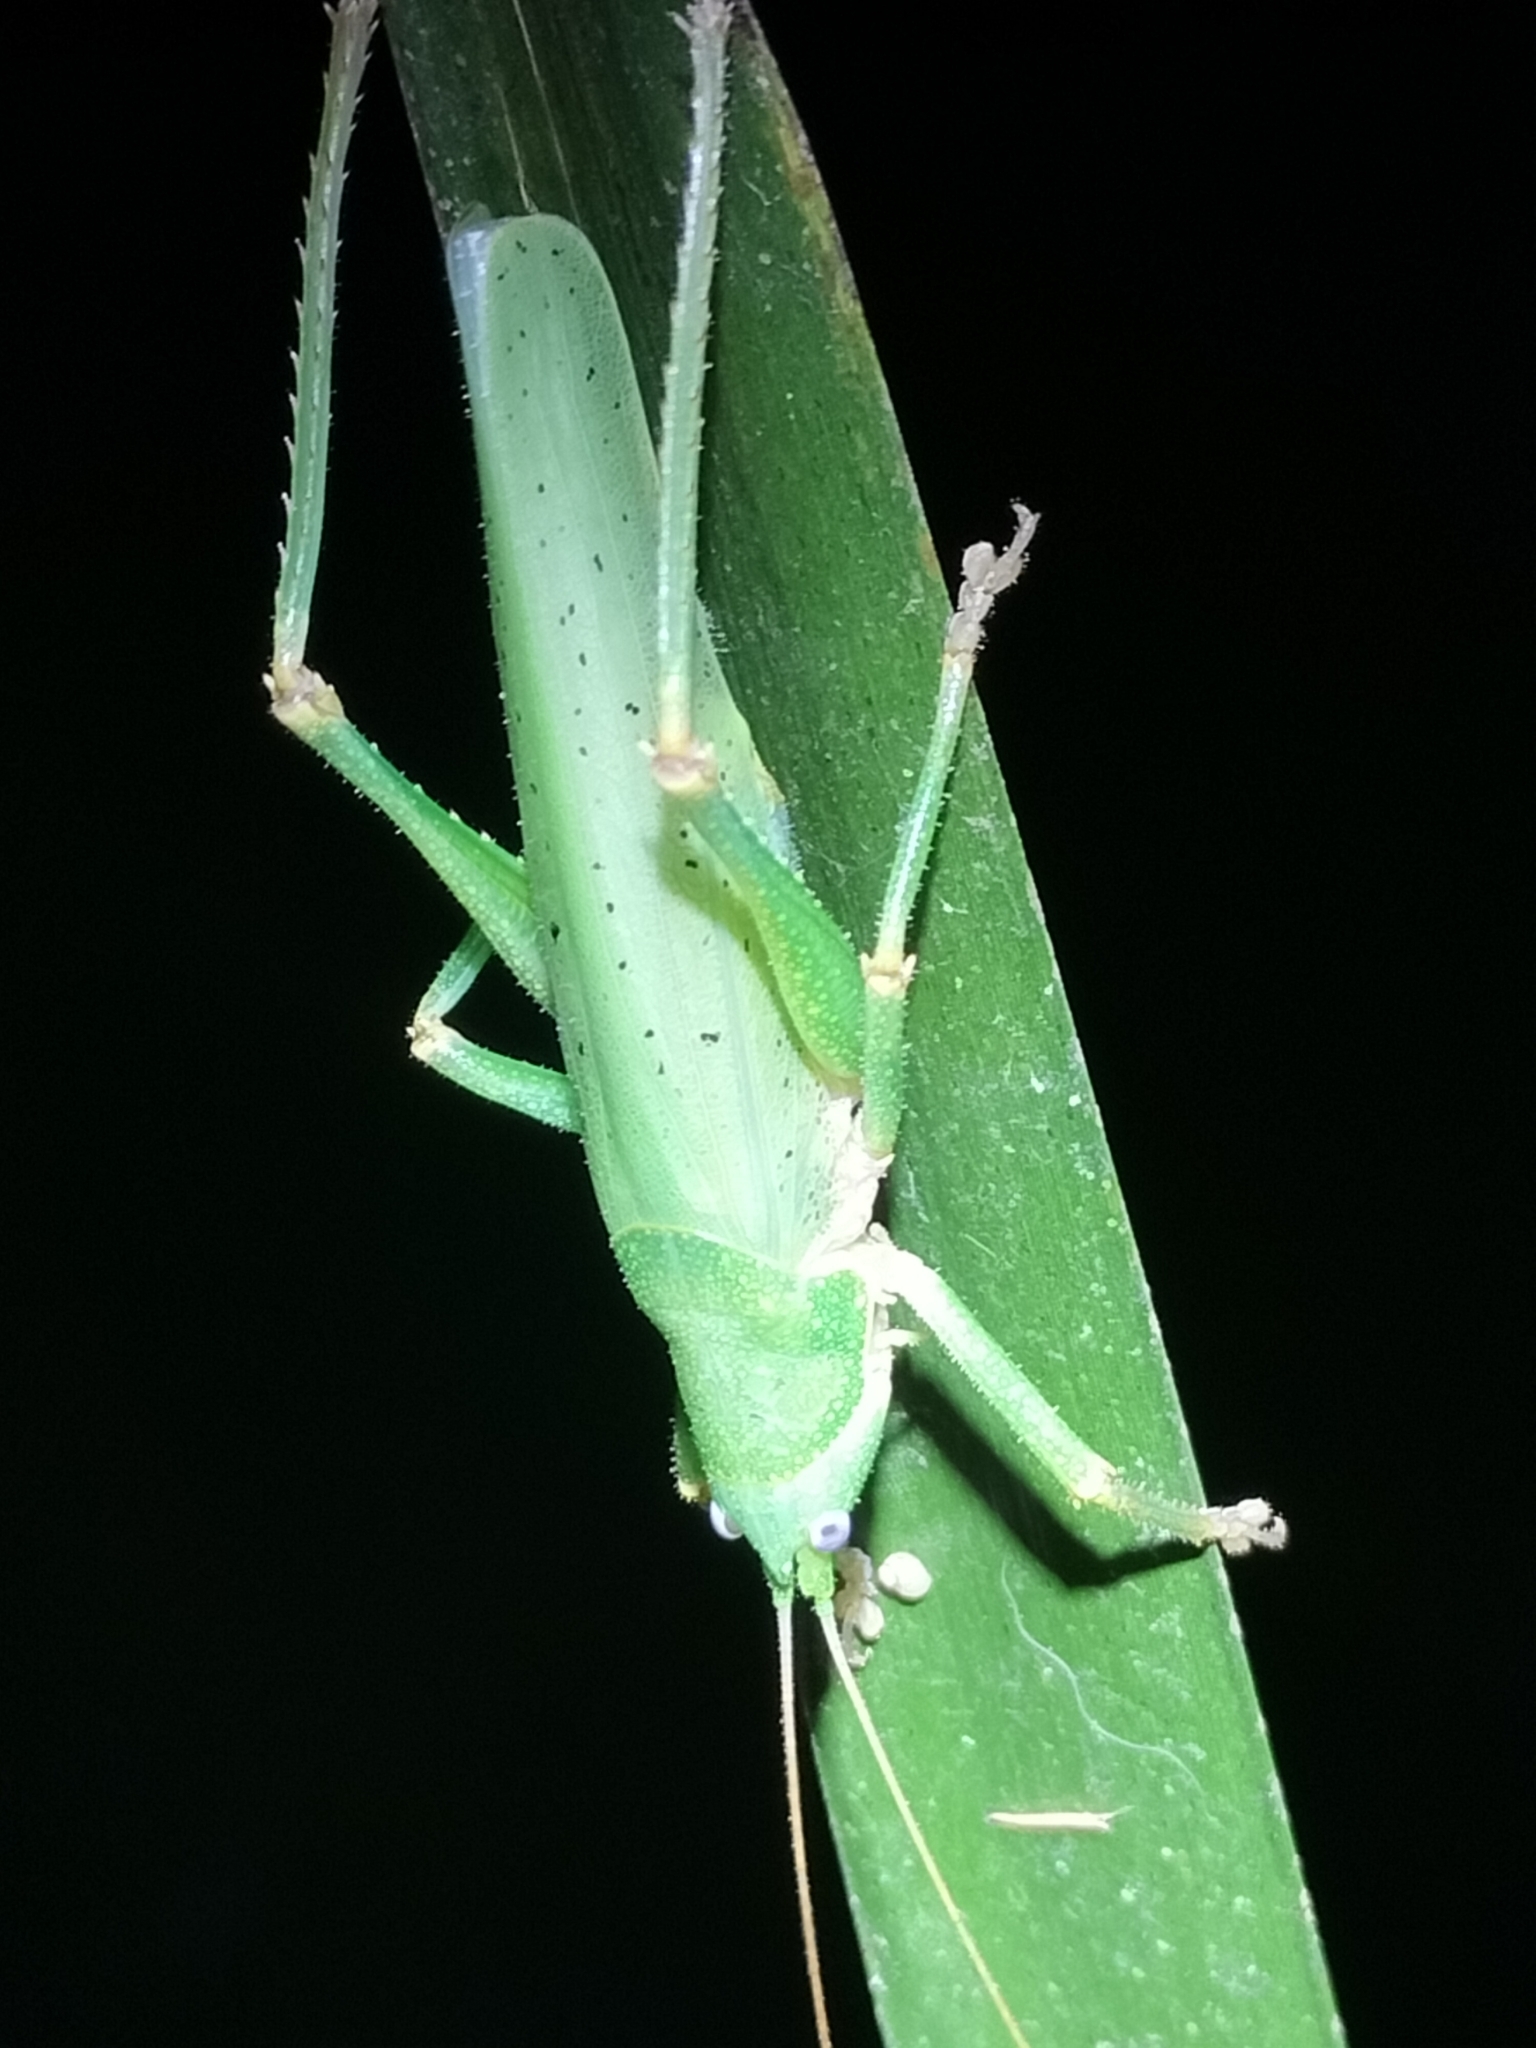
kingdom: Animalia
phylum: Arthropoda
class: Insecta
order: Orthoptera
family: Tettigoniidae
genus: Austrosalomona
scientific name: Austrosalomona destructor
